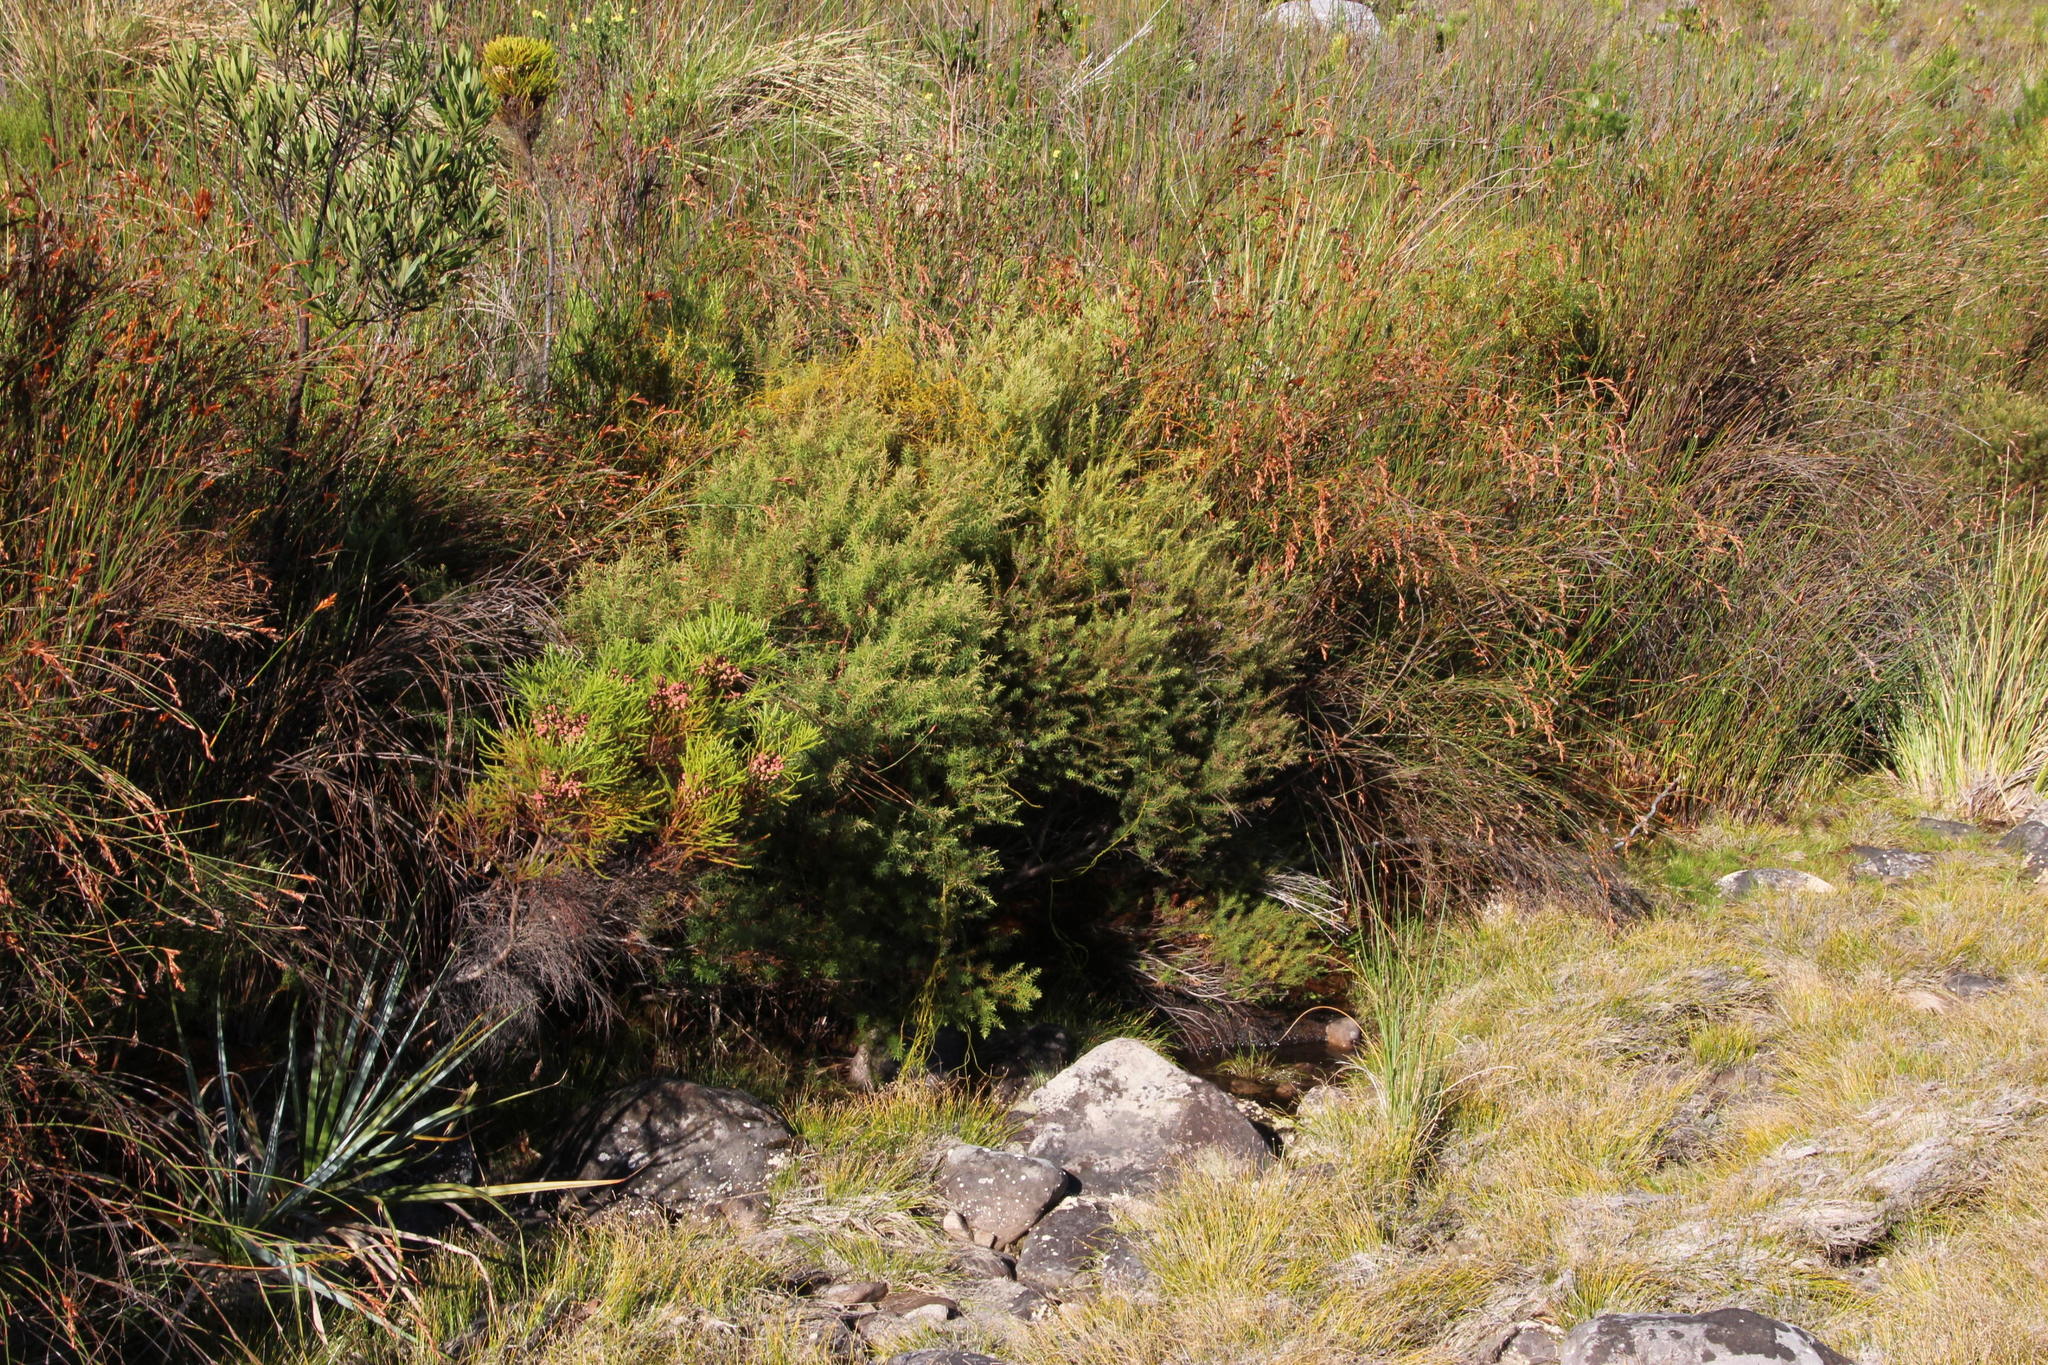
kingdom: Plantae
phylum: Tracheophyta
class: Magnoliopsida
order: Bruniales
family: Bruniaceae
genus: Brunia
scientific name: Brunia africana
